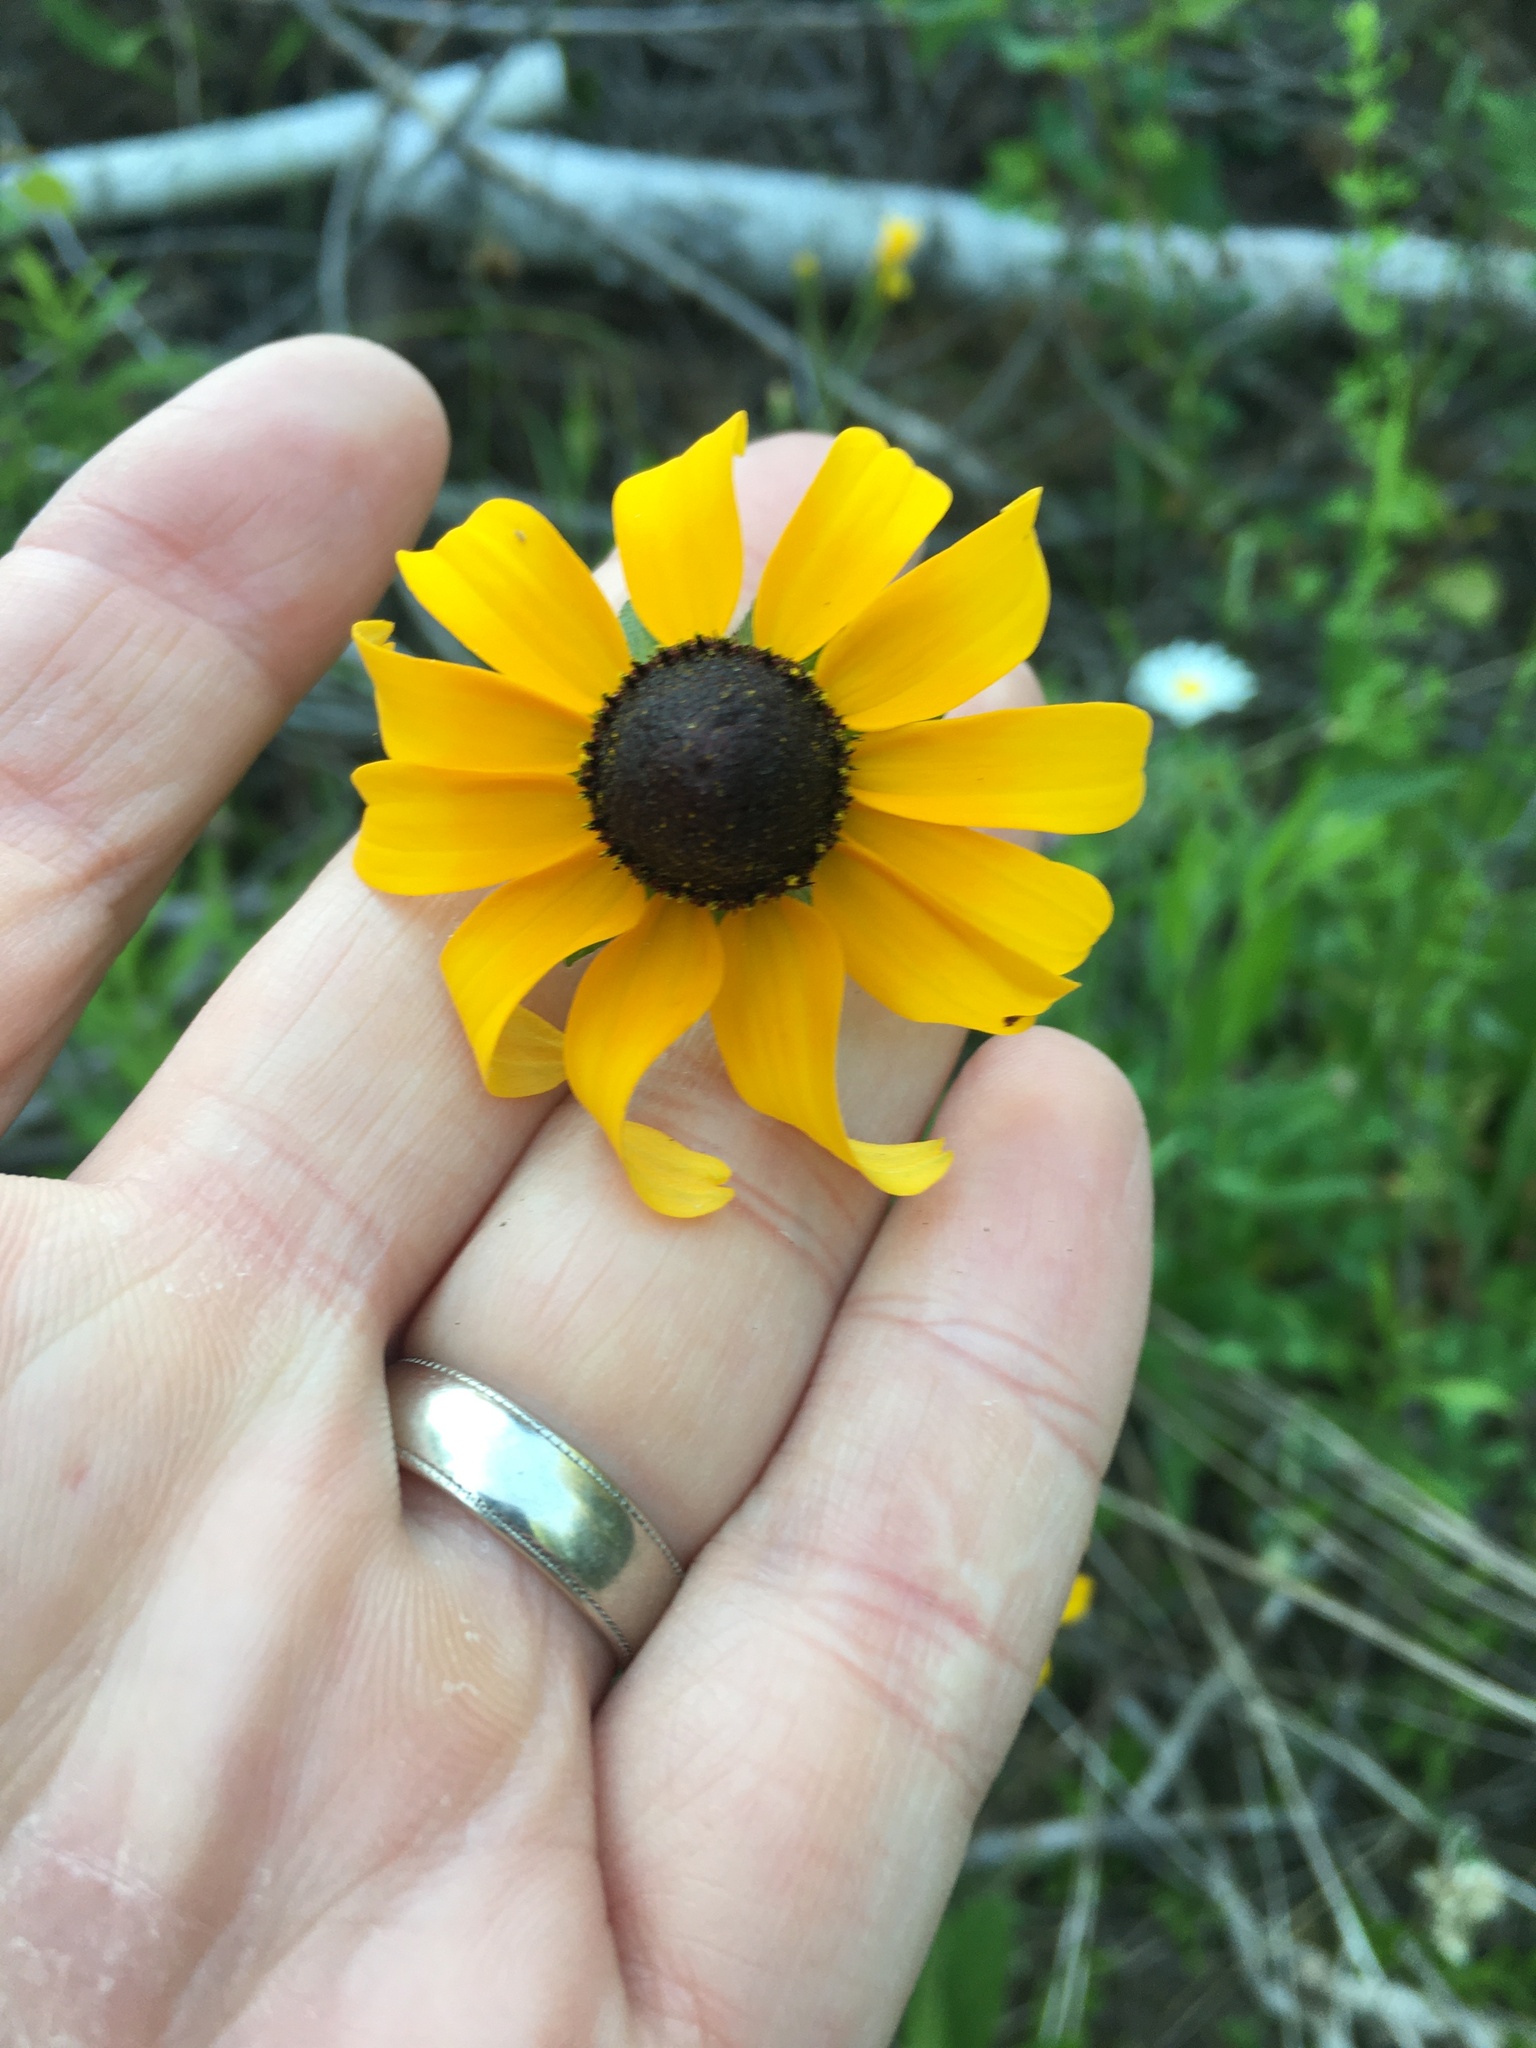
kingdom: Plantae
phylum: Tracheophyta
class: Magnoliopsida
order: Asterales
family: Asteraceae
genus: Rudbeckia
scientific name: Rudbeckia hirta
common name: Black-eyed-susan
